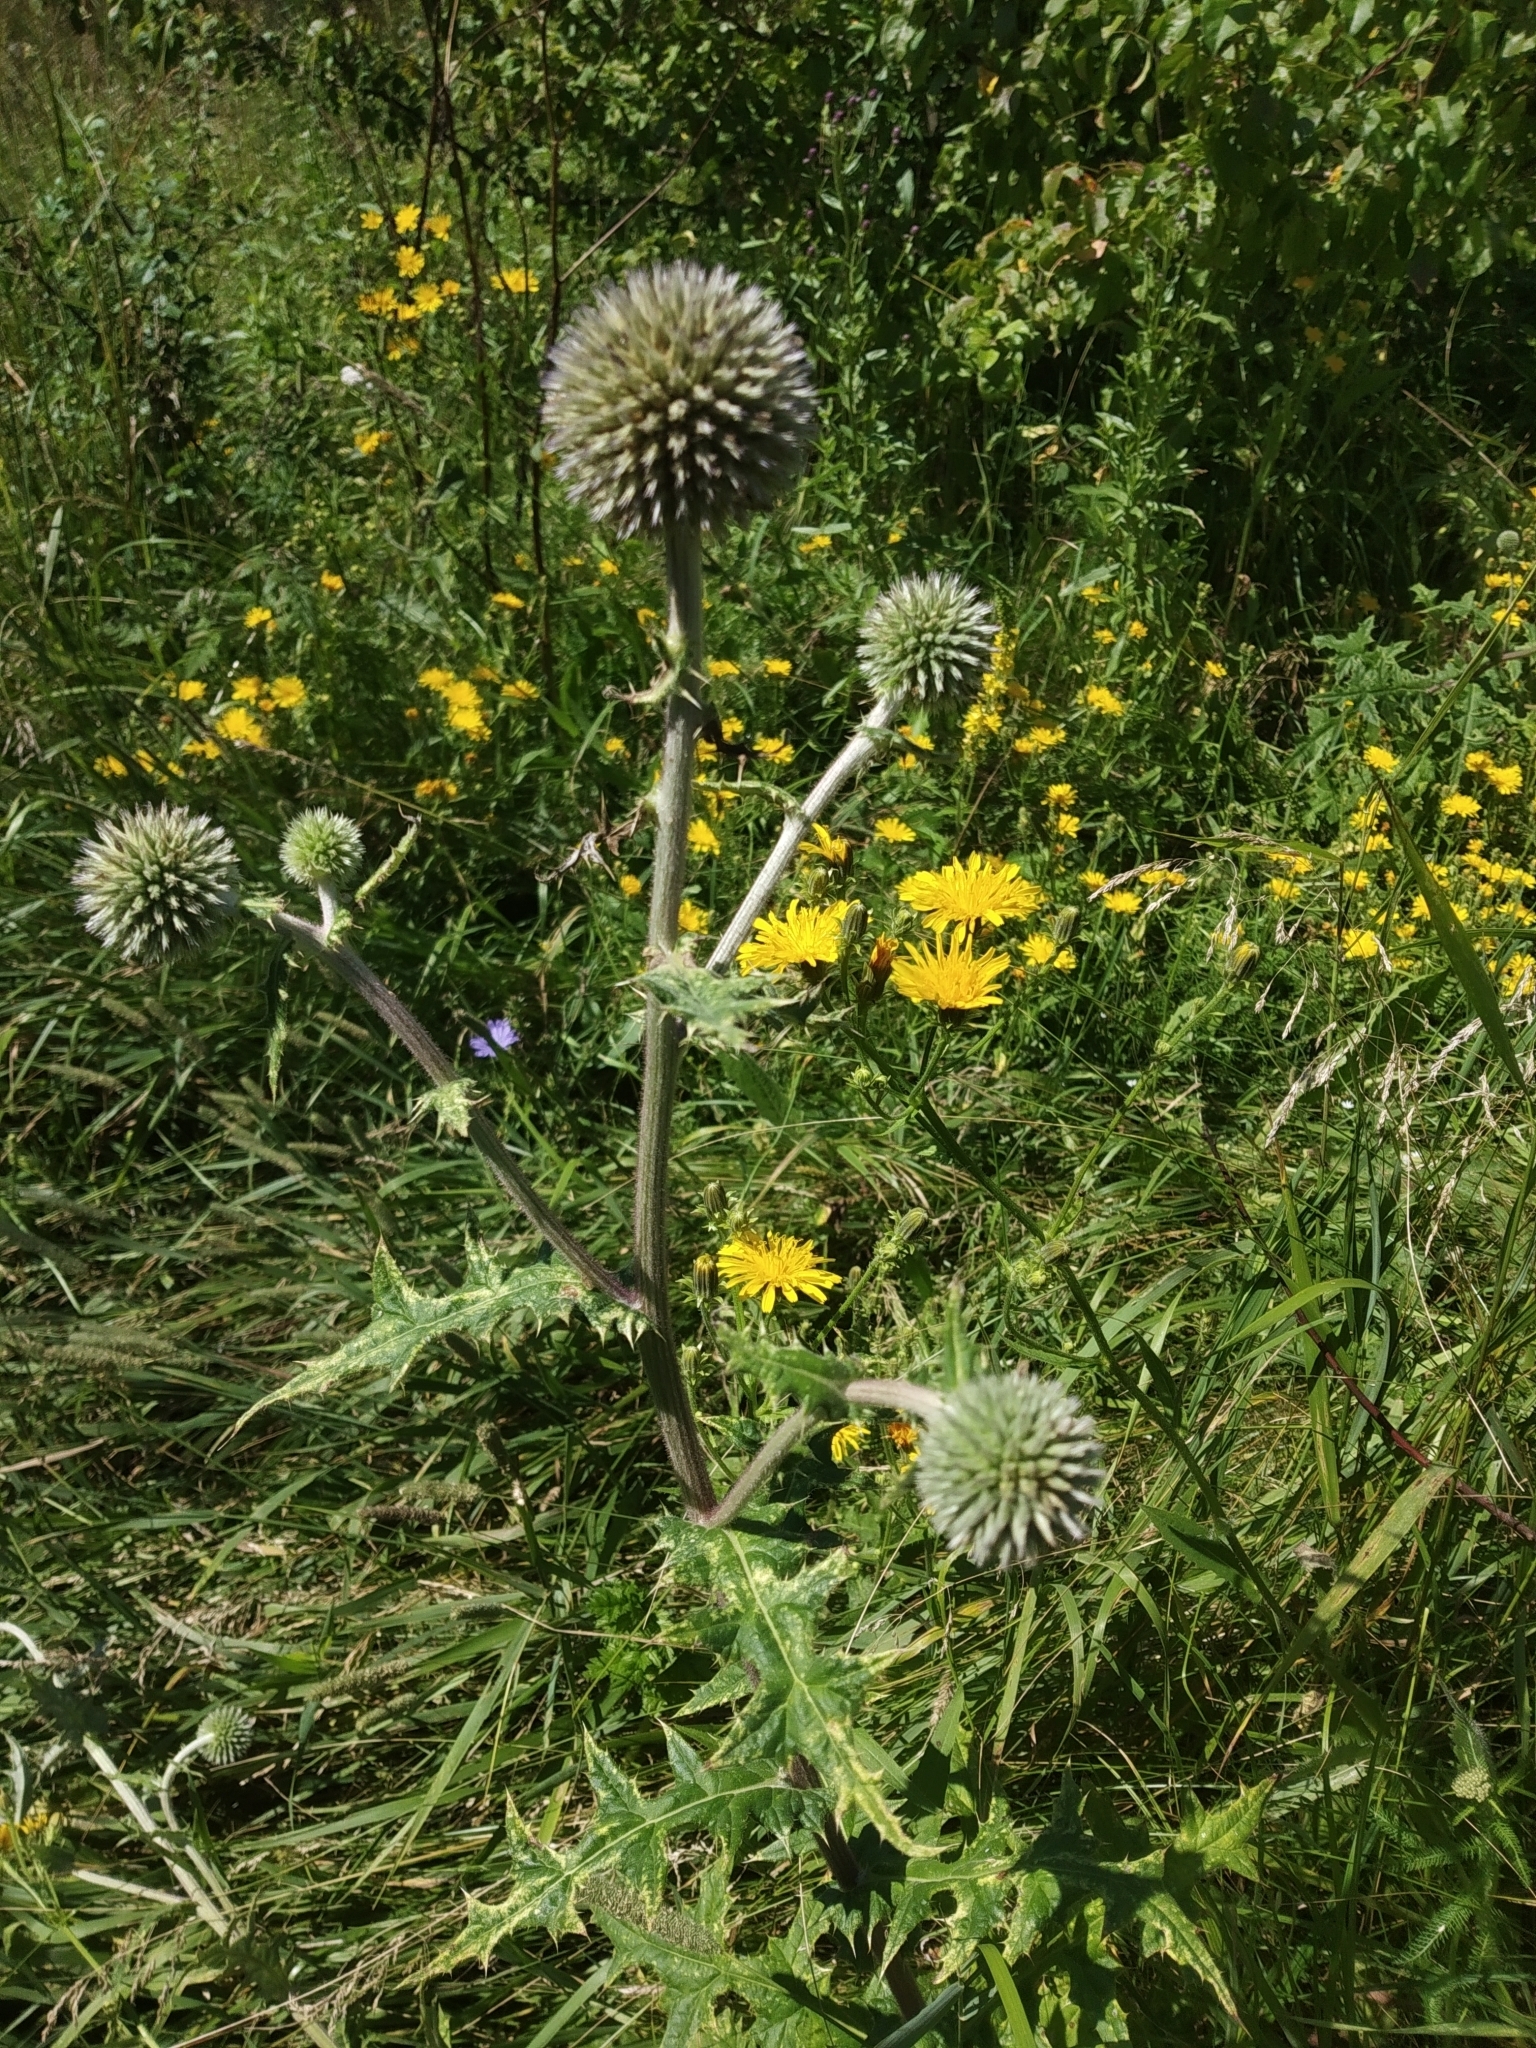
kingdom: Plantae
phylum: Tracheophyta
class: Magnoliopsida
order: Asterales
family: Asteraceae
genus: Echinops
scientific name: Echinops sphaerocephalus
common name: Glandular globe-thistle
